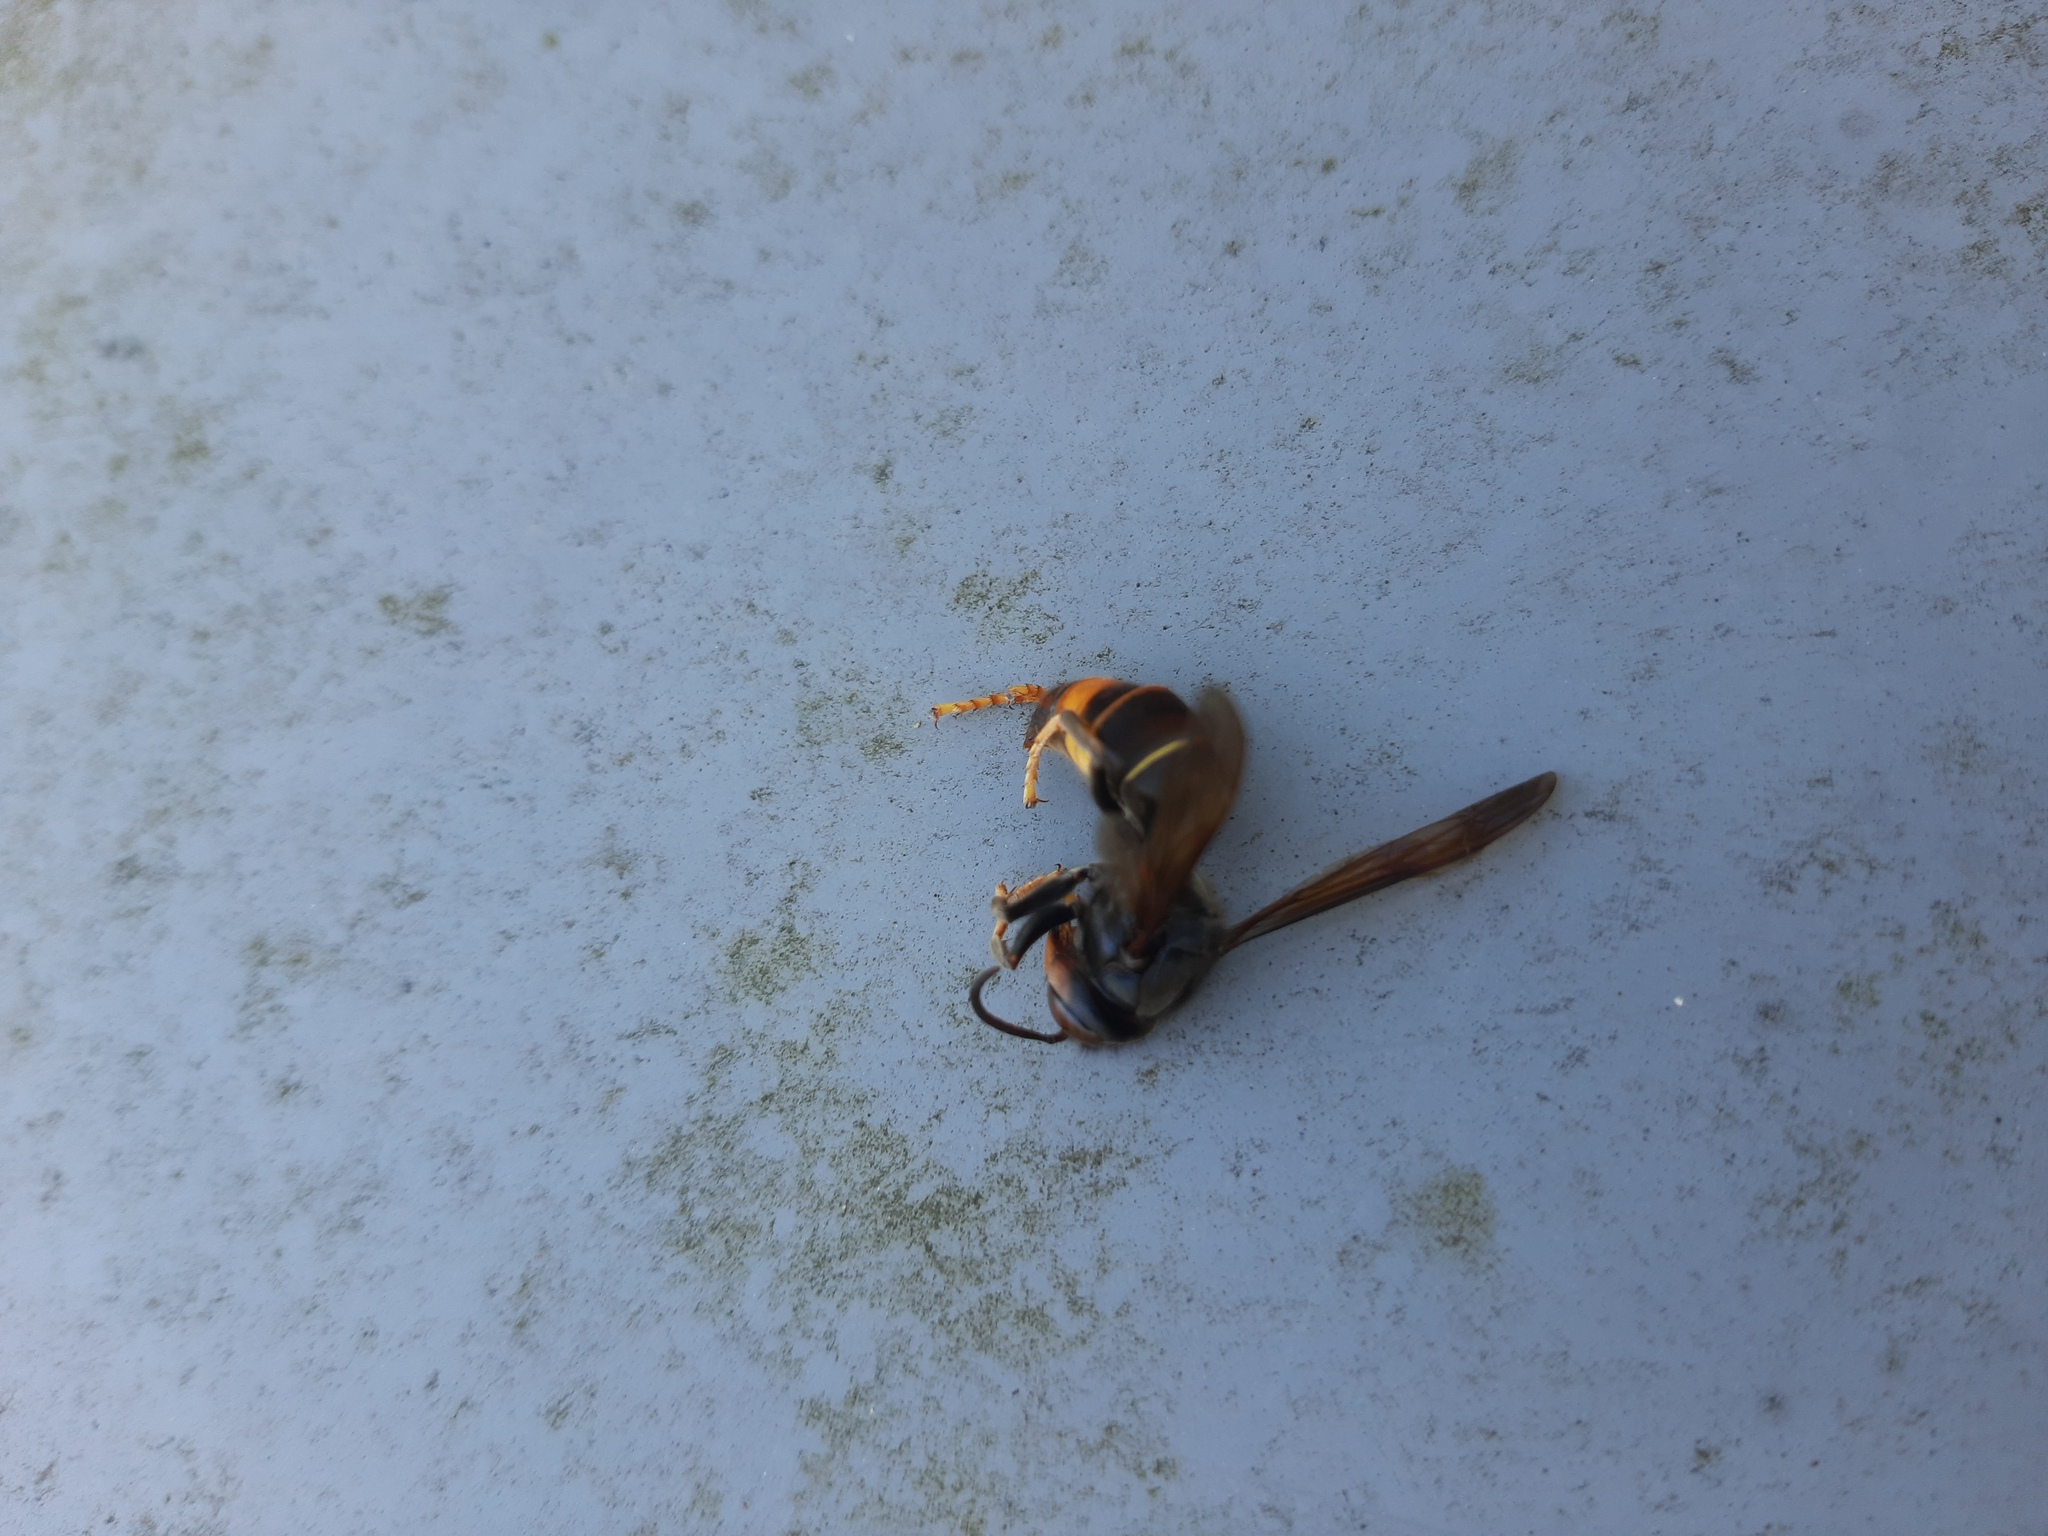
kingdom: Animalia
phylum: Arthropoda
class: Insecta
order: Hymenoptera
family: Vespidae
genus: Vespa
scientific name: Vespa velutina
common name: Asian hornet
